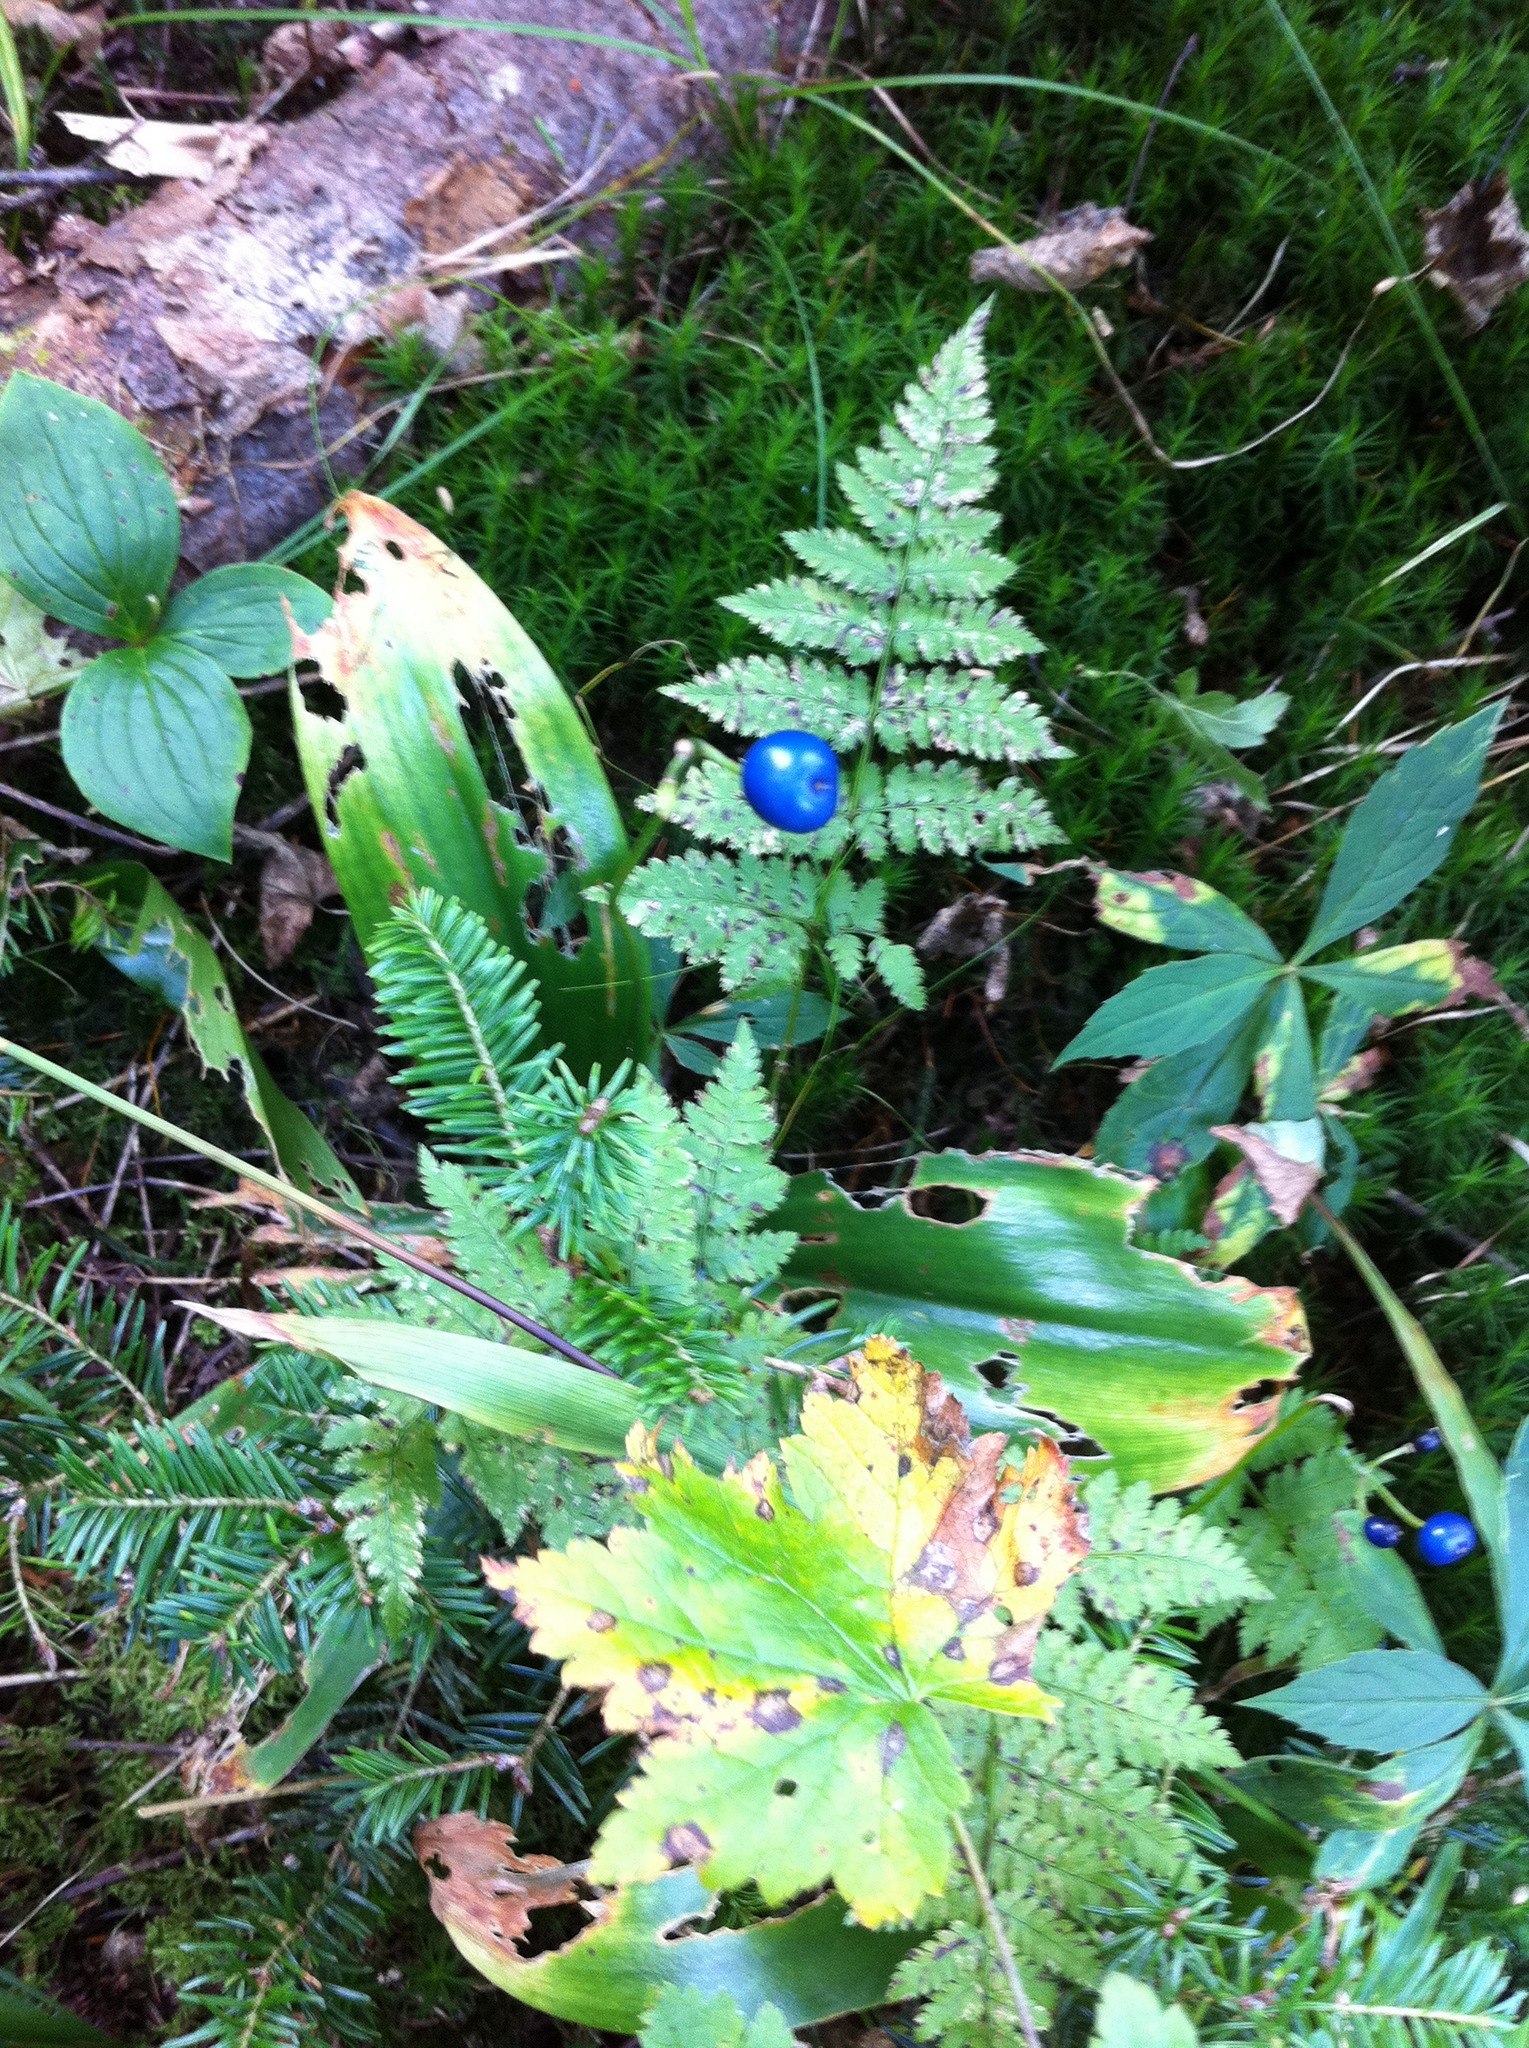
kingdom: Plantae
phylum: Tracheophyta
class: Magnoliopsida
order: Cornales
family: Cornaceae
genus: Cornus
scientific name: Cornus canadensis
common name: Creeping dogwood
